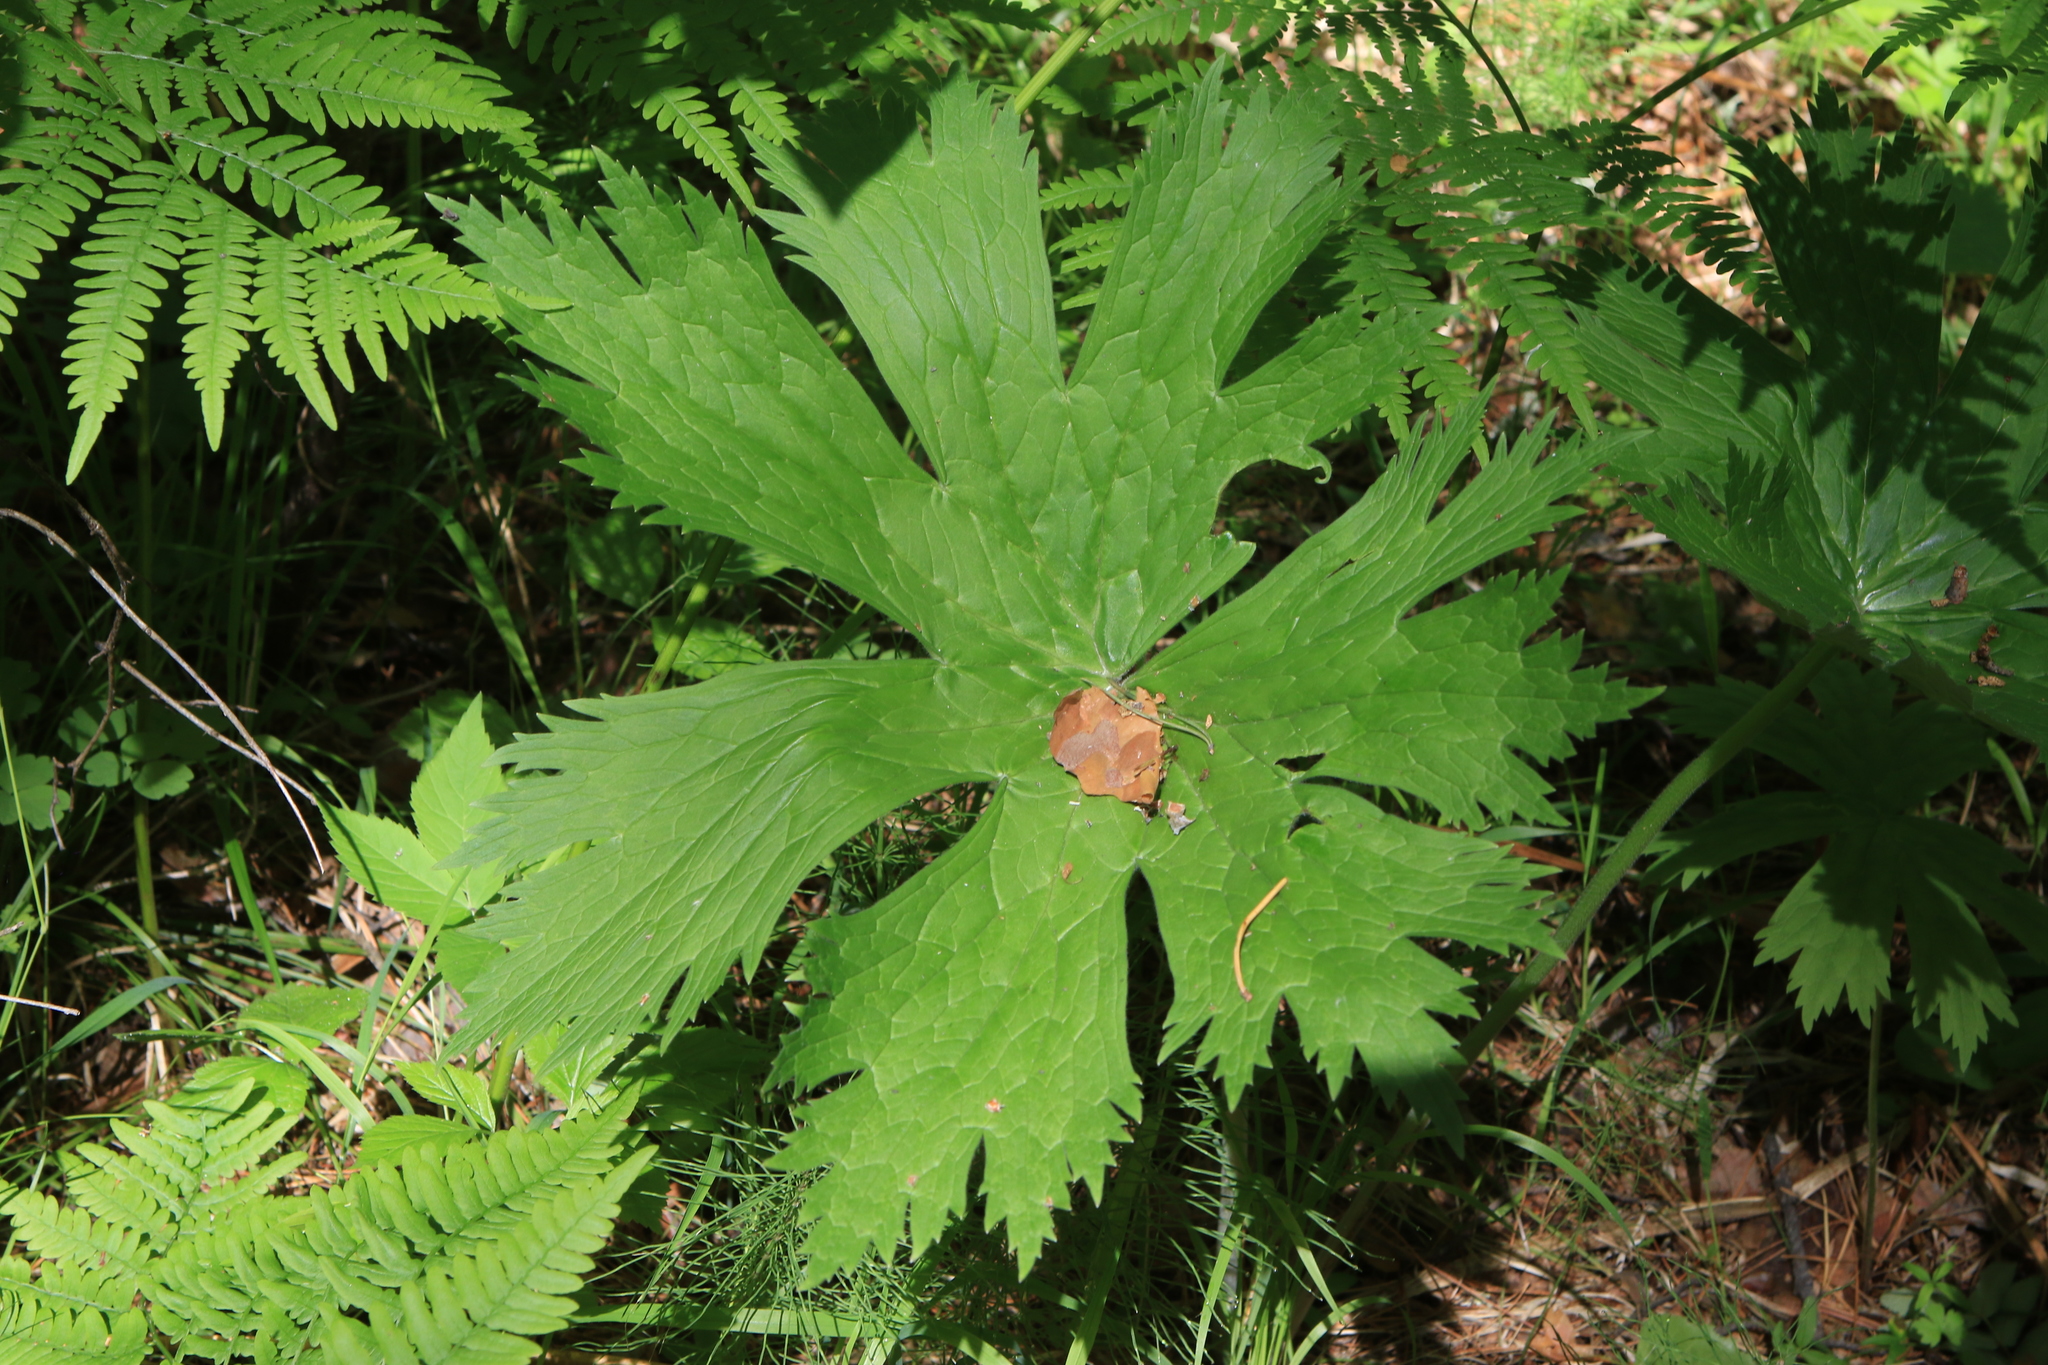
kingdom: Plantae
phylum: Tracheophyta
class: Magnoliopsida
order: Ranunculales
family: Ranunculaceae
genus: Aconitum
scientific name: Aconitum septentrionale
